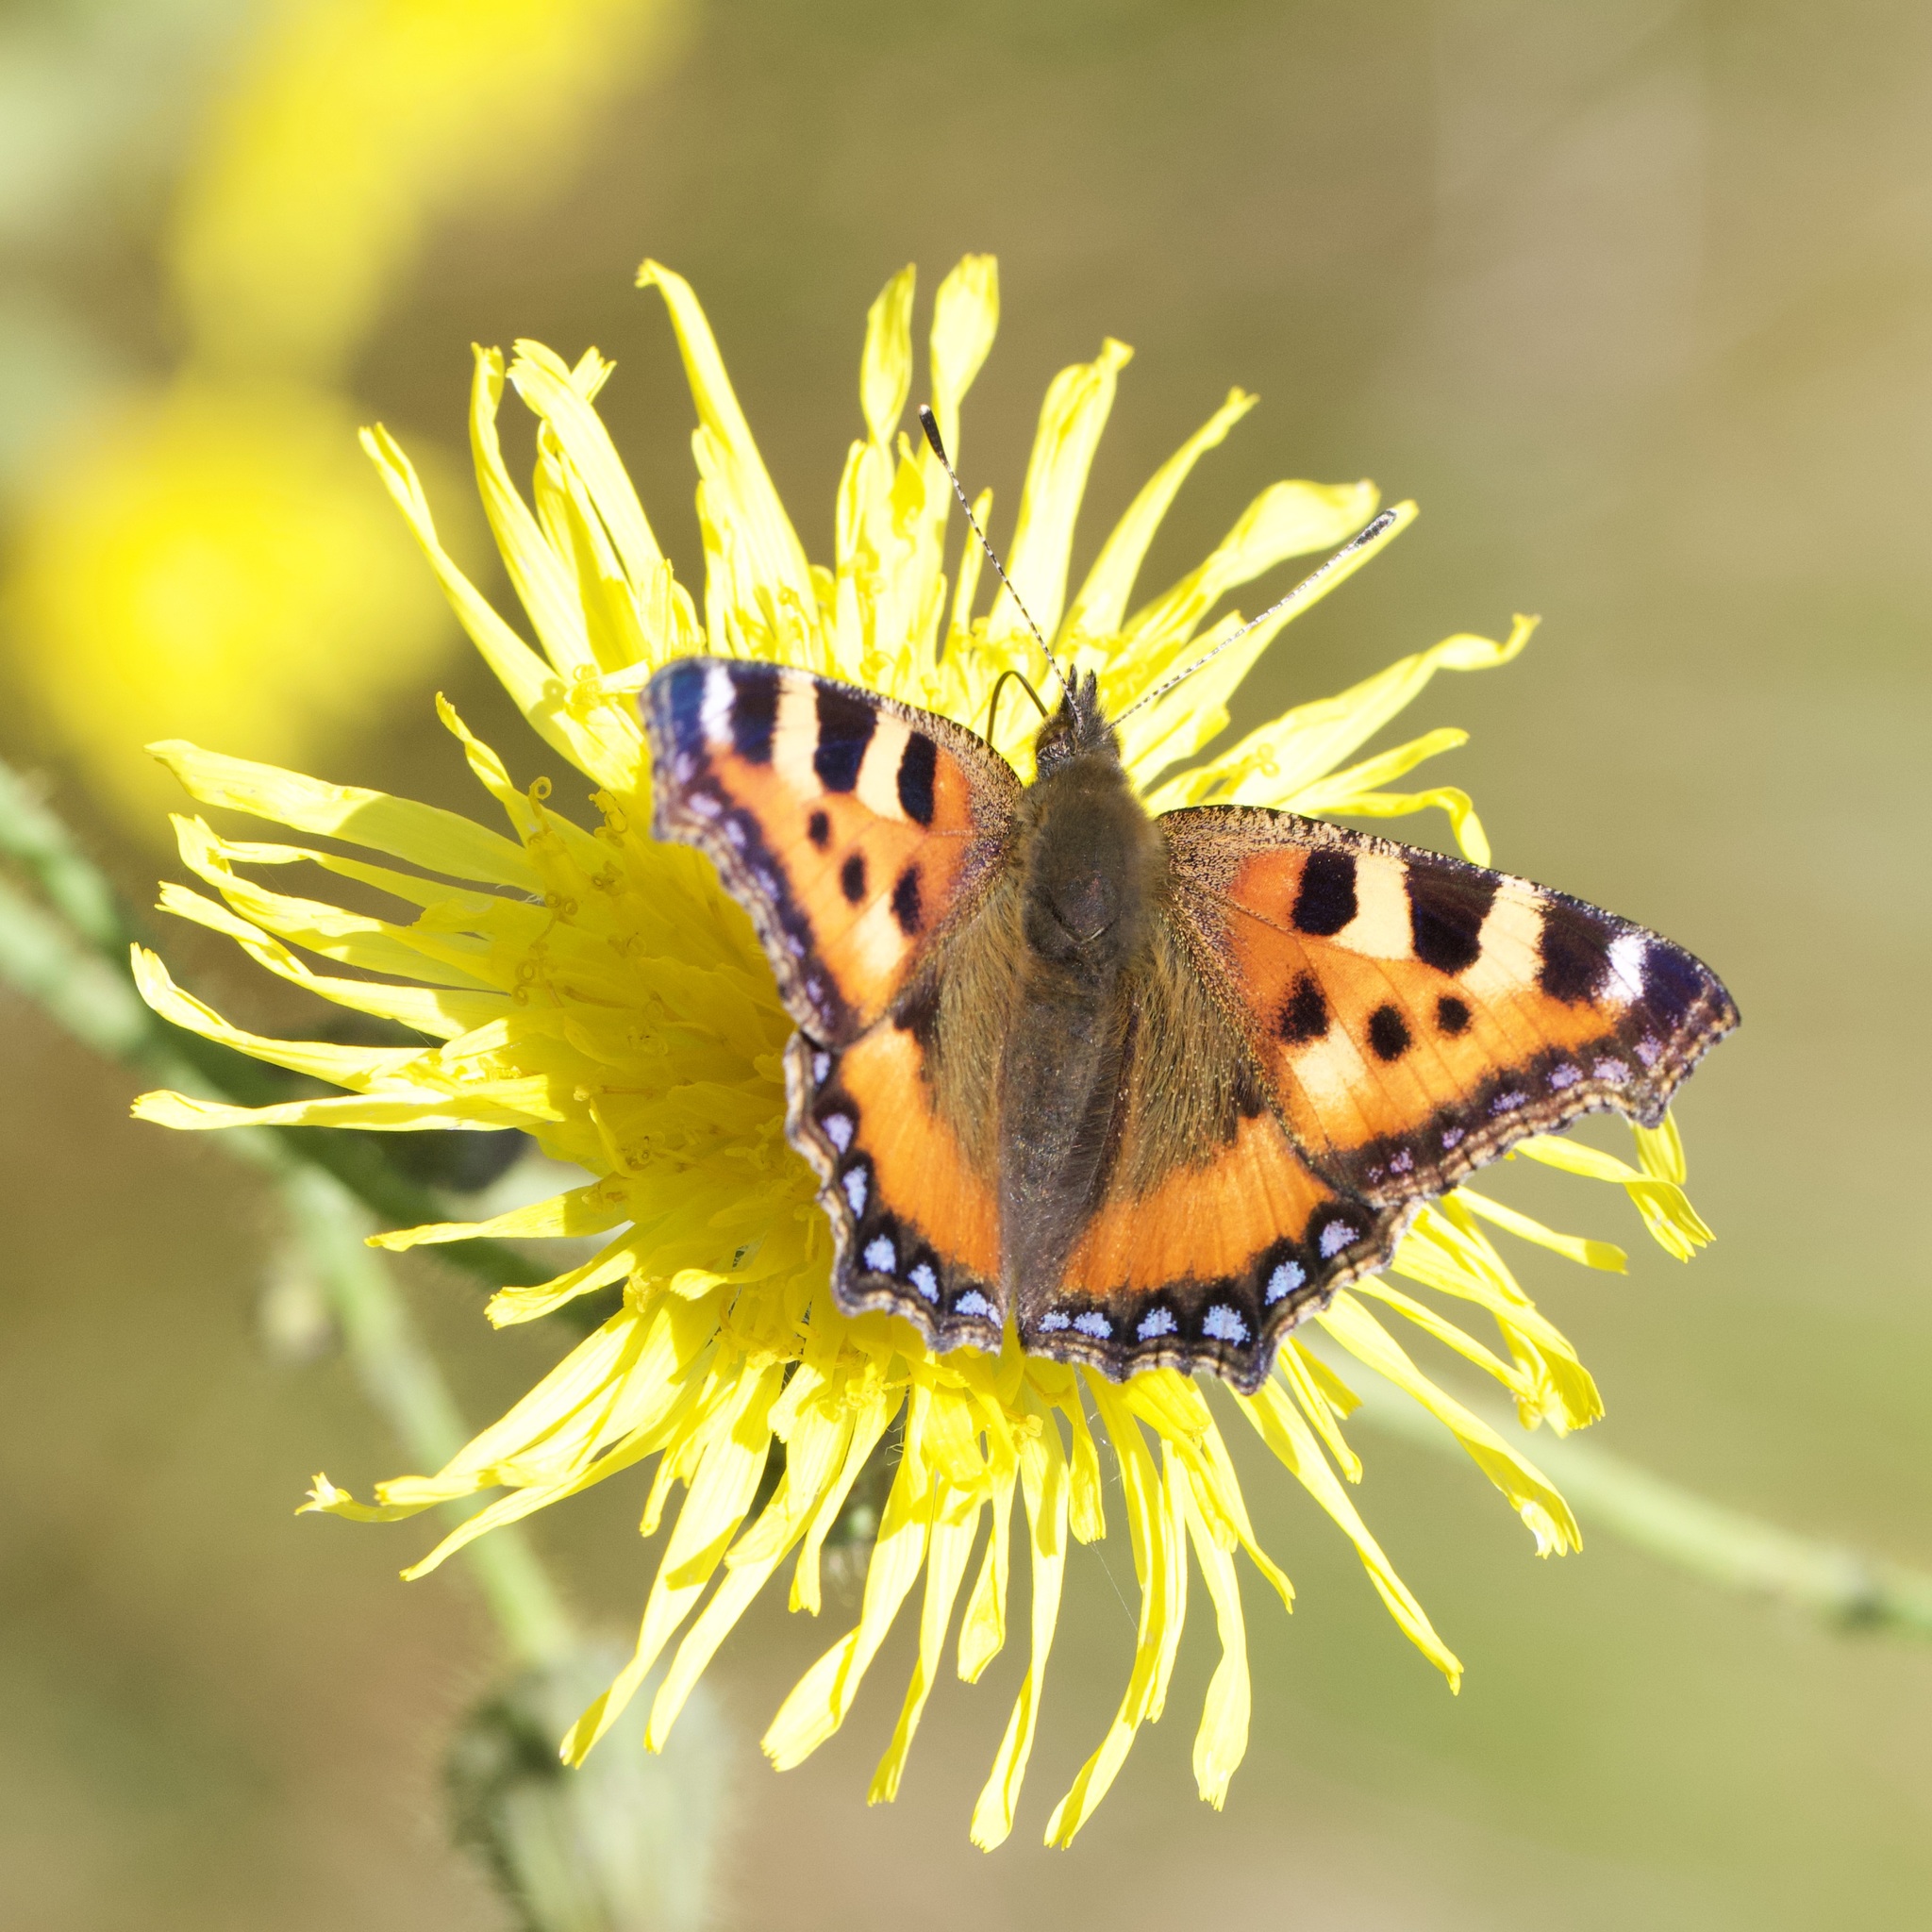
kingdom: Animalia
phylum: Arthropoda
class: Insecta
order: Lepidoptera
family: Nymphalidae
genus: Aglais
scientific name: Aglais urticae
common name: Small tortoiseshell
